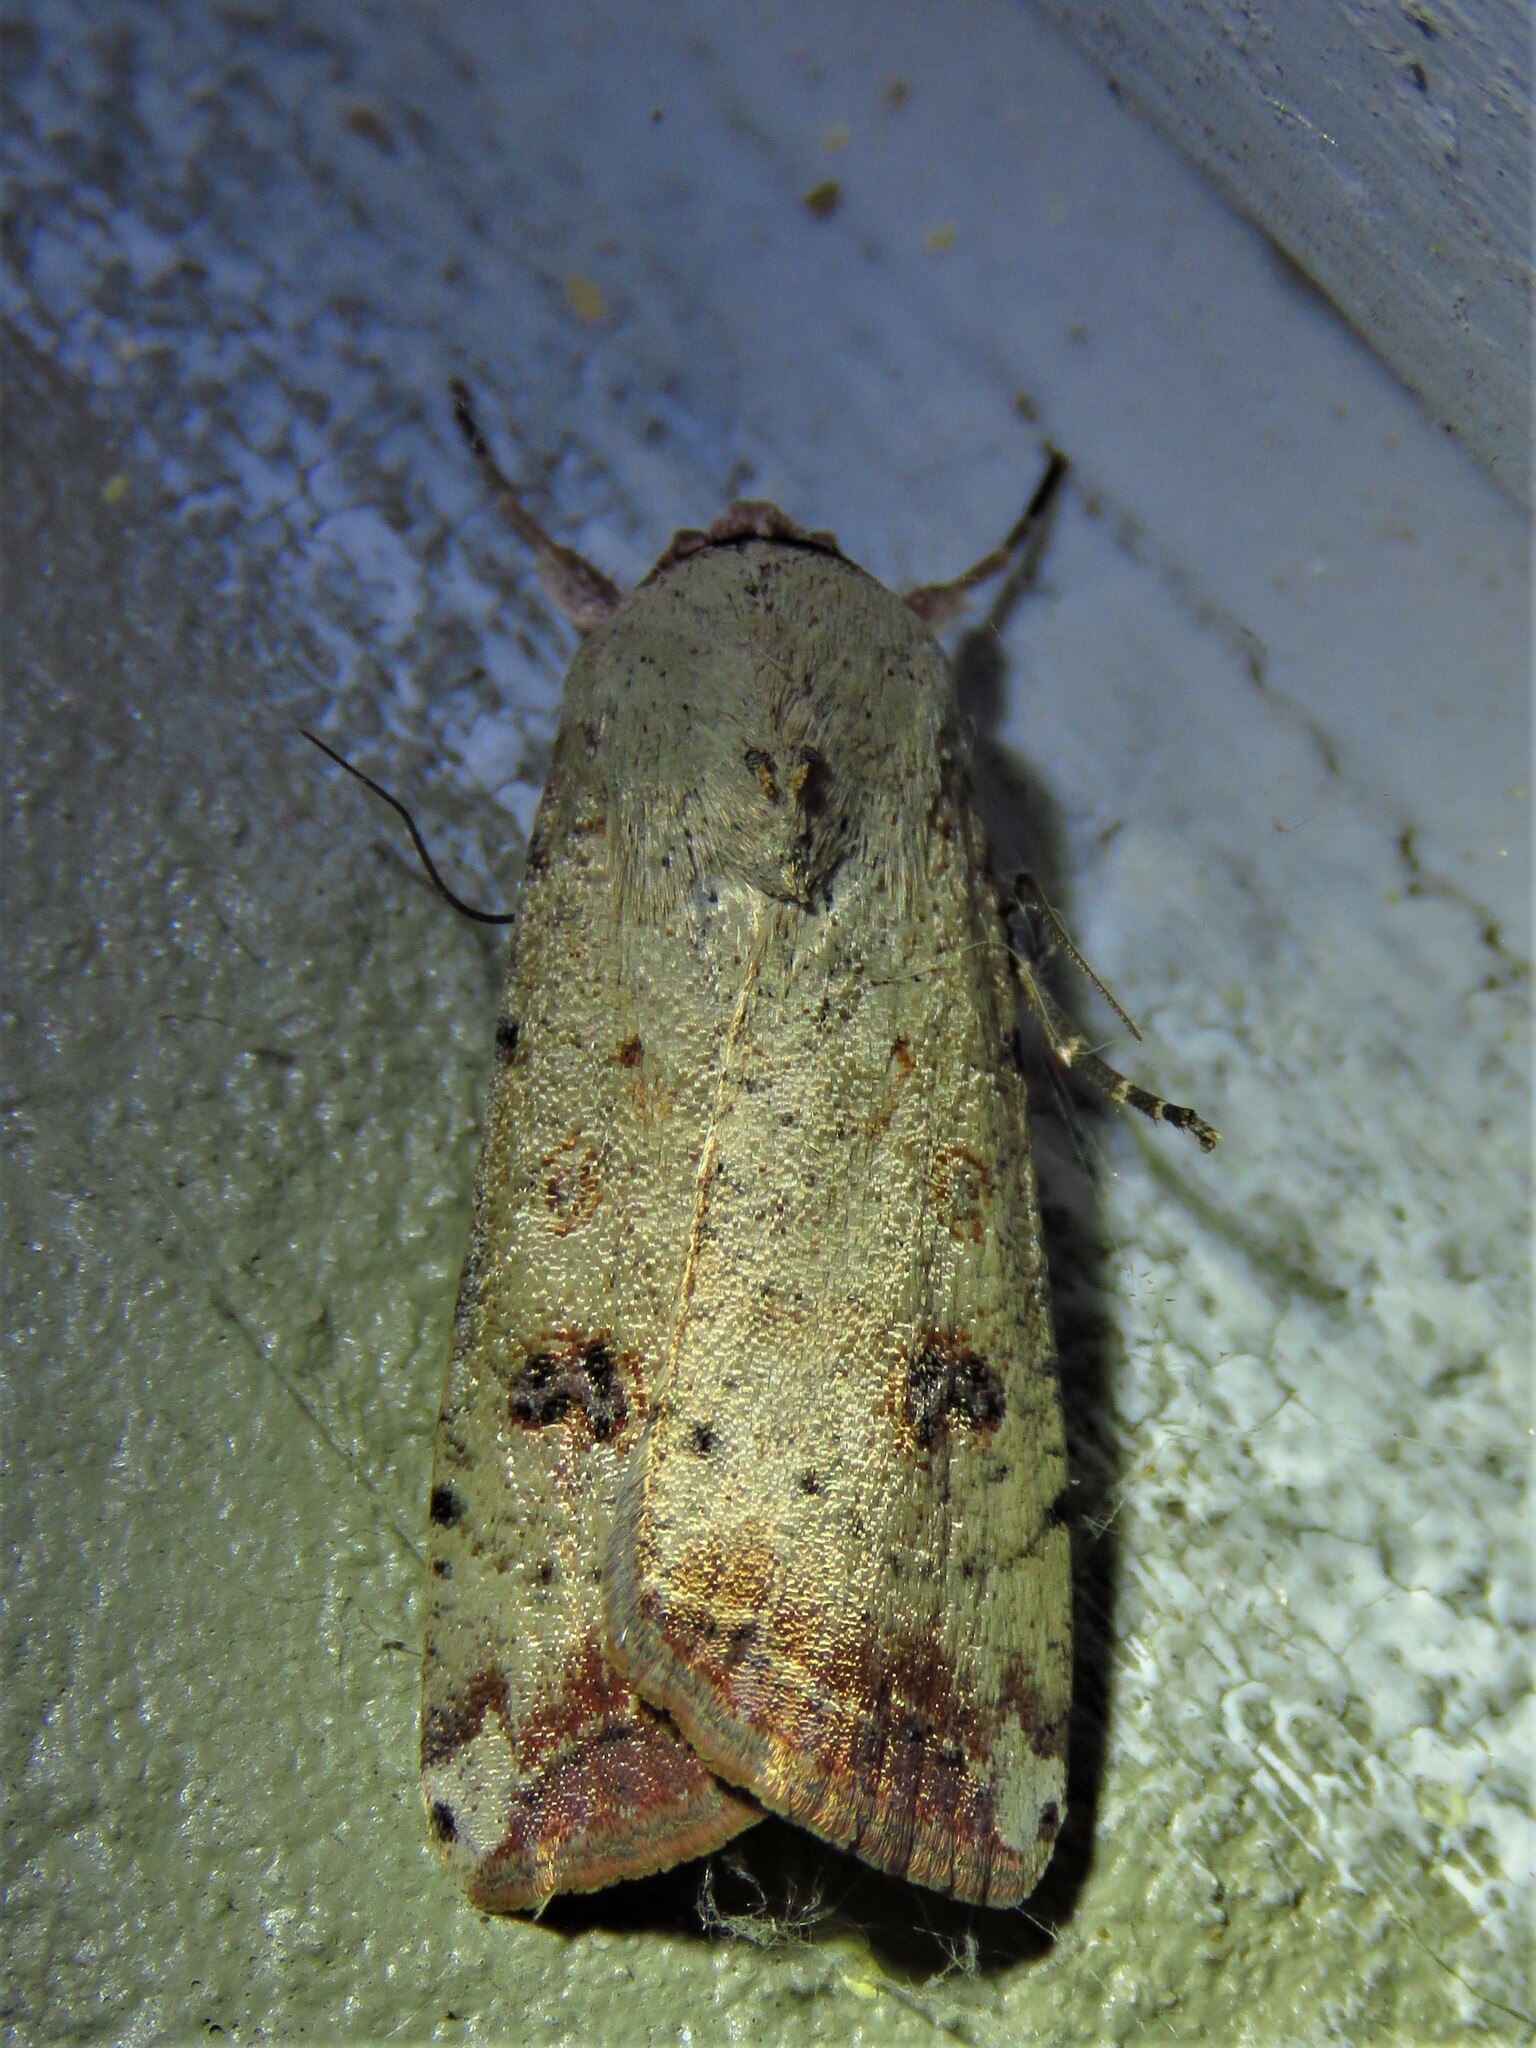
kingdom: Animalia
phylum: Arthropoda
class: Insecta
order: Lepidoptera
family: Noctuidae
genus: Anicla
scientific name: Anicla infecta
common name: Green cutworm
